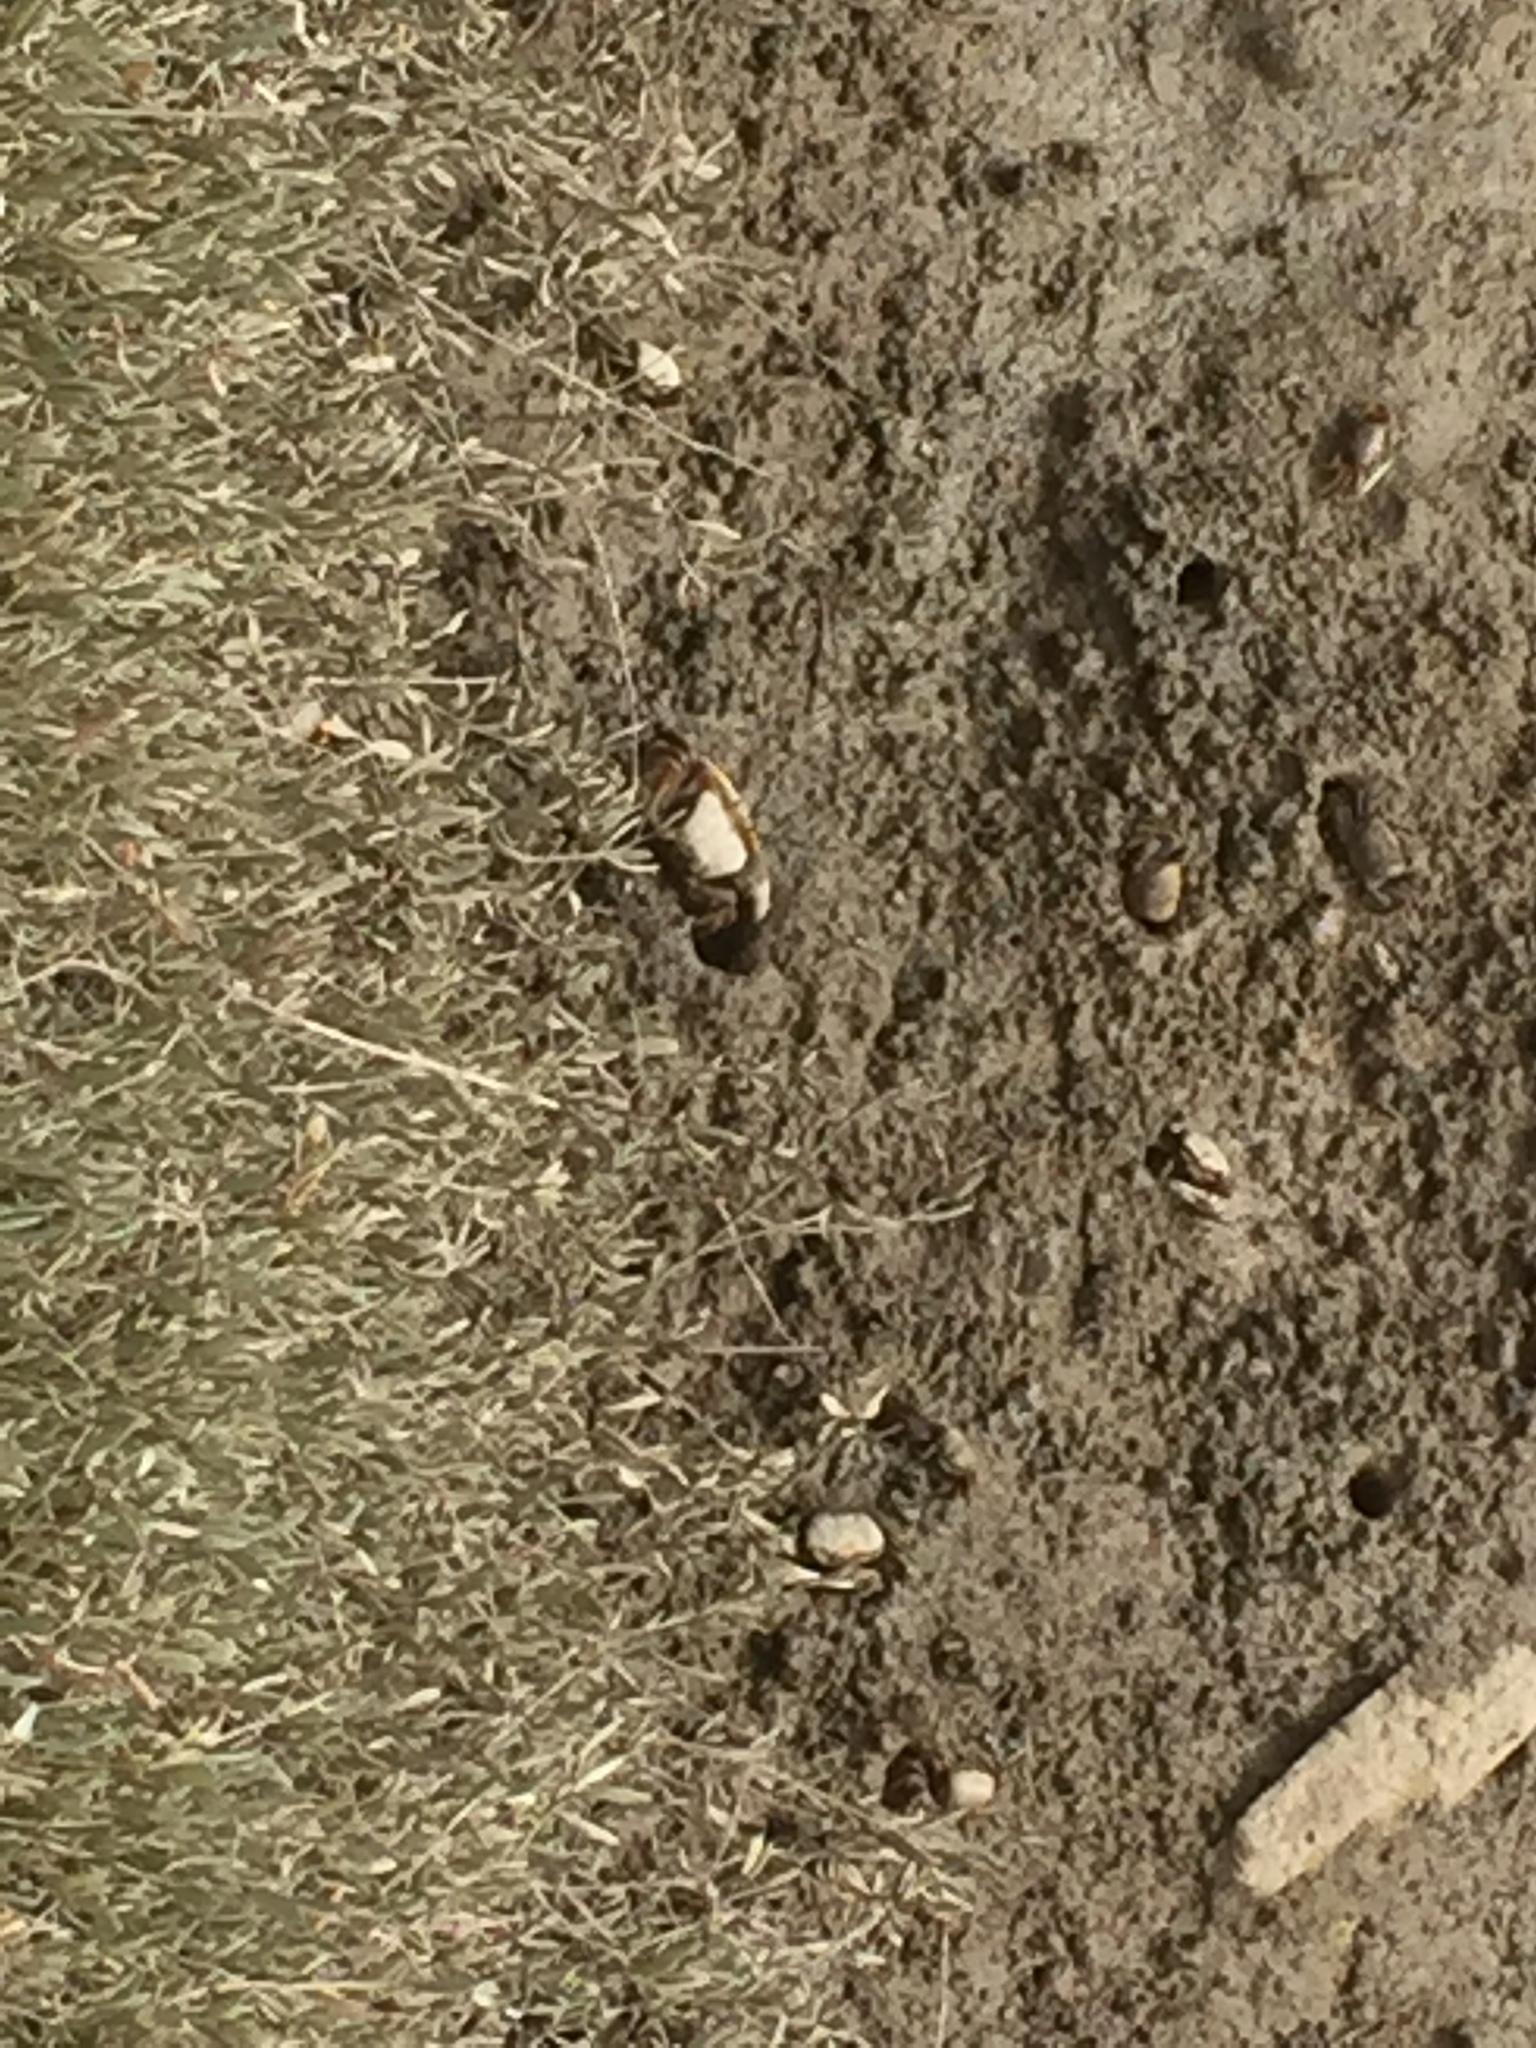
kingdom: Animalia
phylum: Arthropoda
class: Malacostraca
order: Decapoda
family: Ocypodidae
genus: Afruca
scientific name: Afruca tangeri
